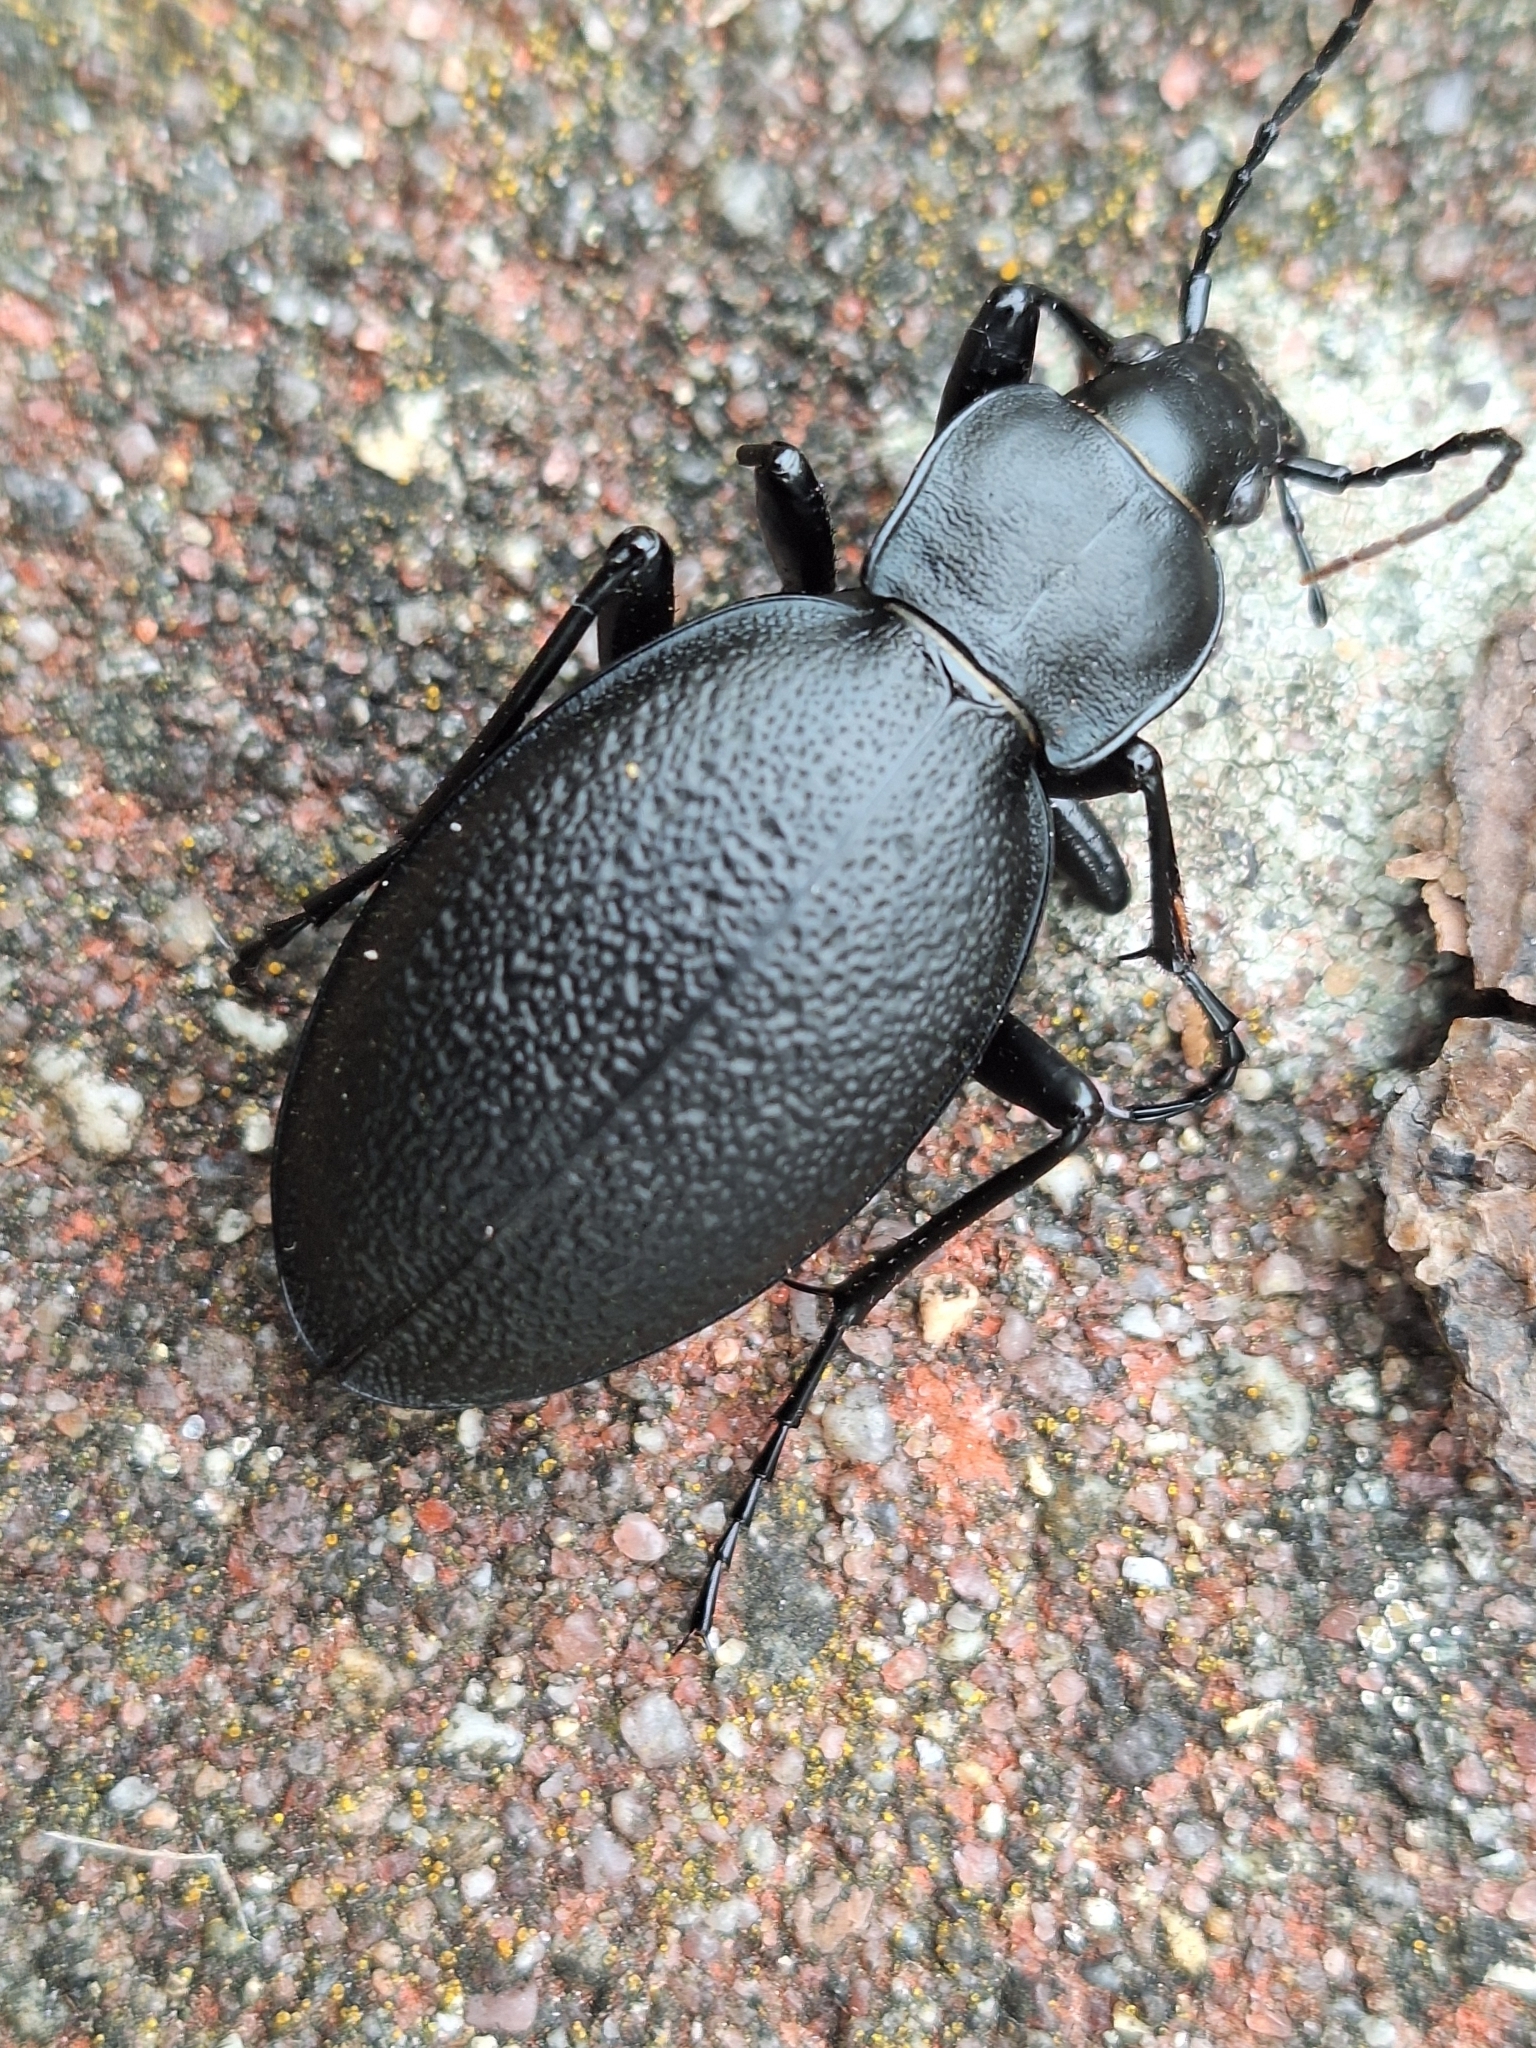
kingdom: Animalia
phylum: Arthropoda
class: Insecta
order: Coleoptera
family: Carabidae
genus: Carabus
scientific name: Carabus coriaceus
